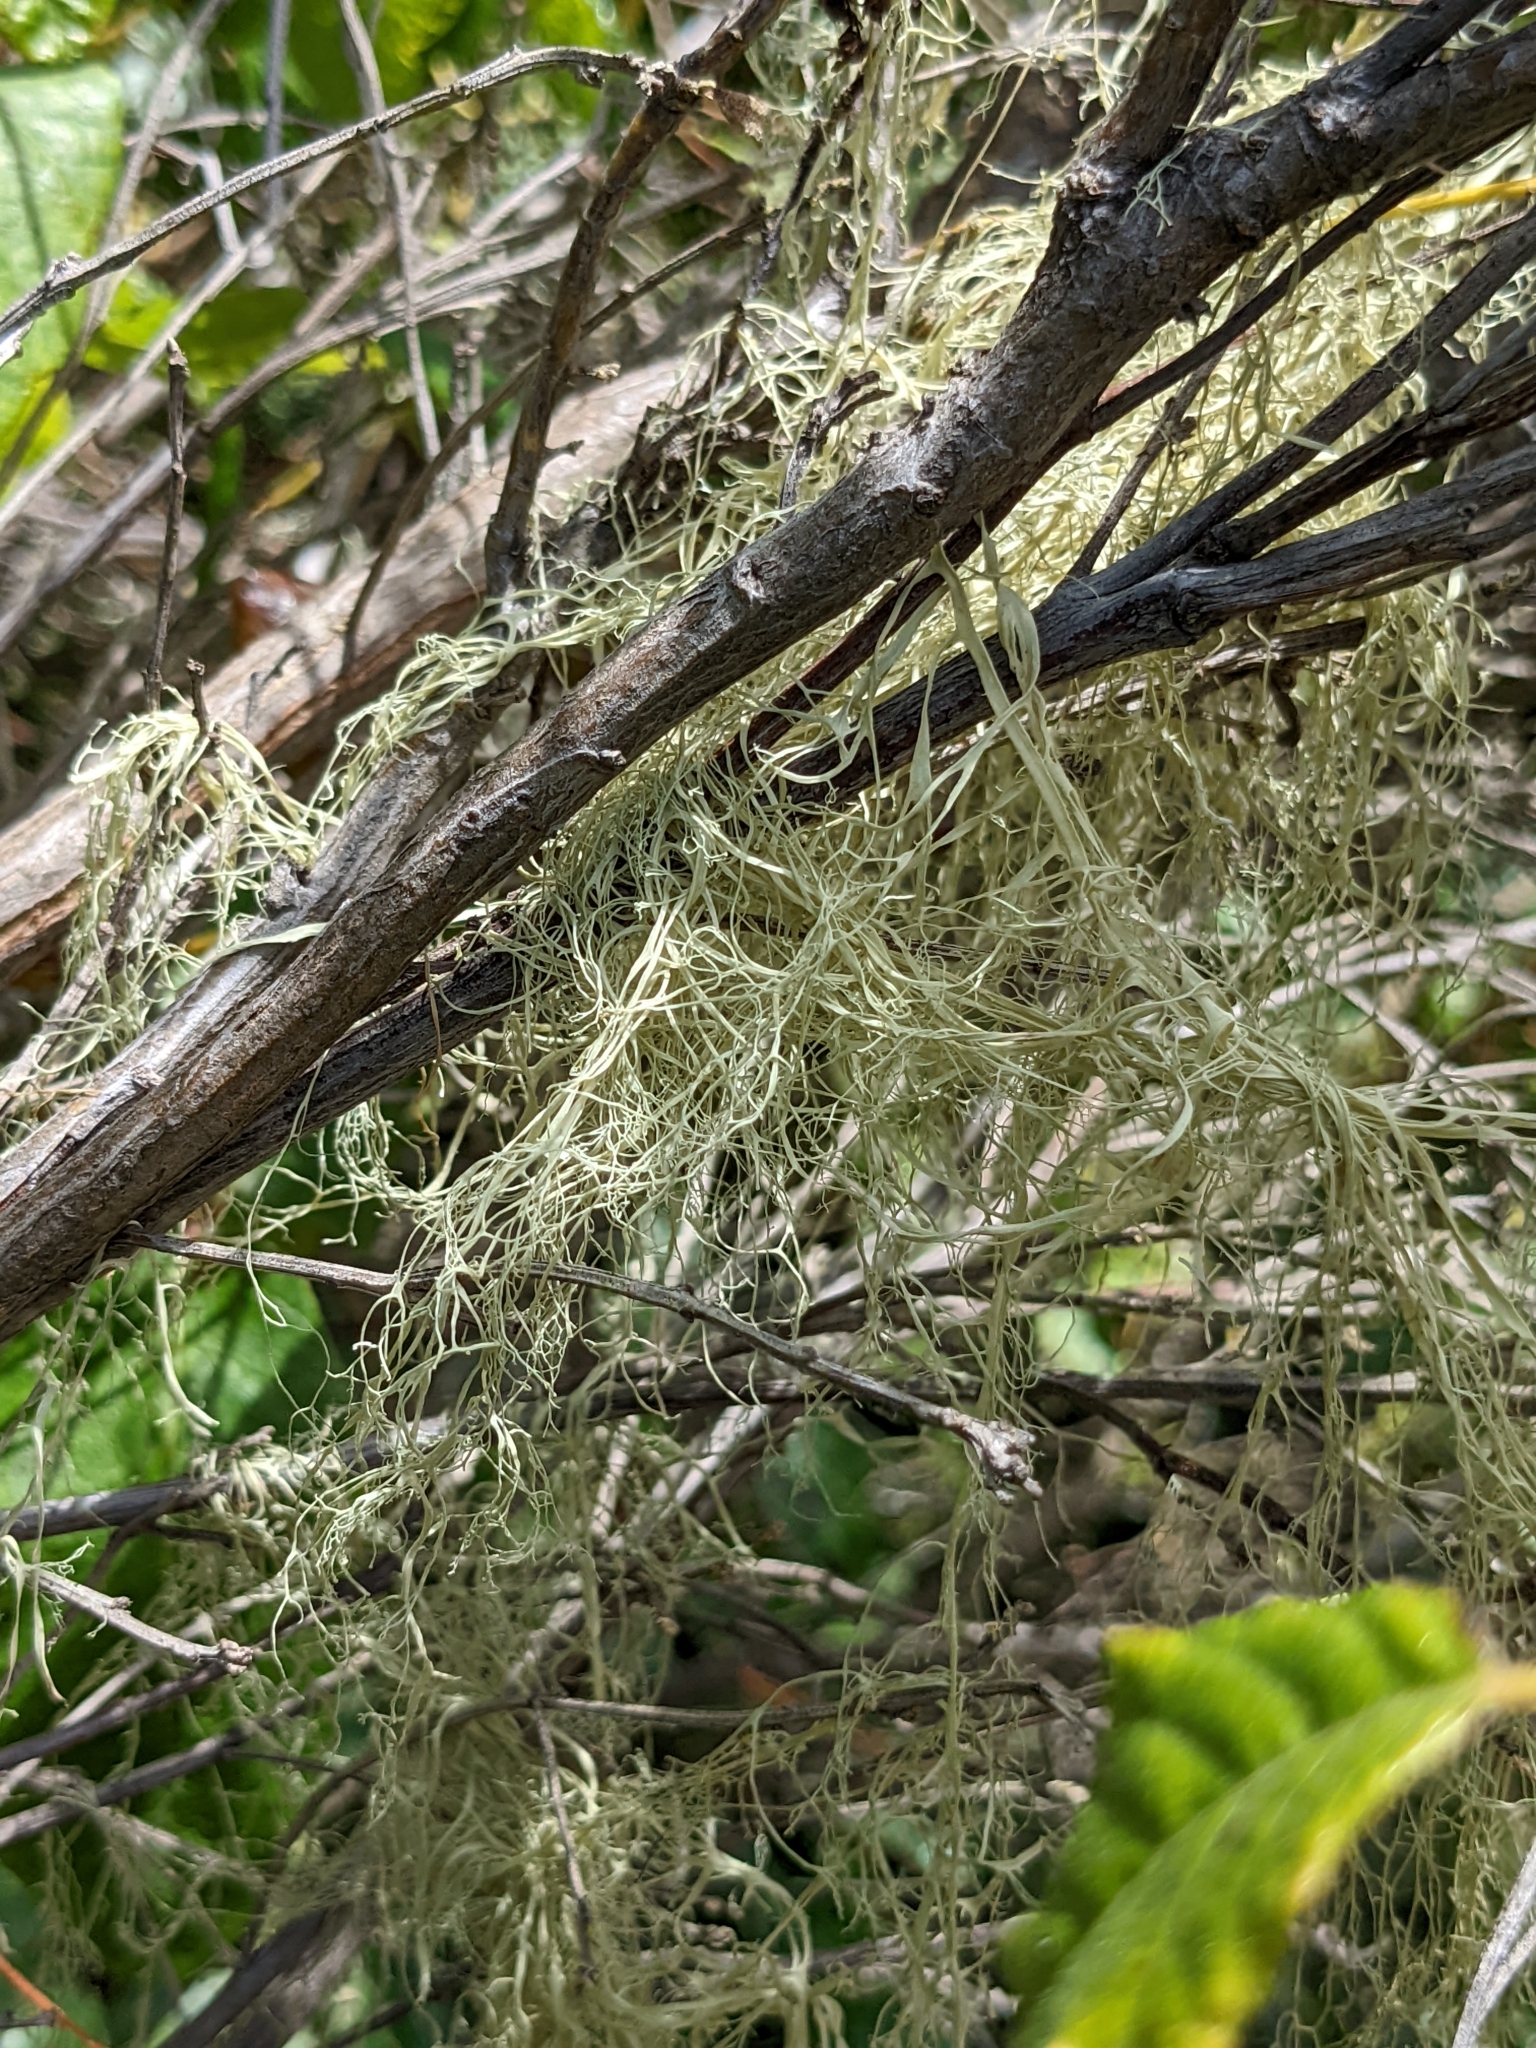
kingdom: Fungi
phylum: Ascomycota
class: Lecanoromycetes
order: Lecanorales
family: Ramalinaceae
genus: Ramalina
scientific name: Ramalina menziesii
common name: Lace lichen
